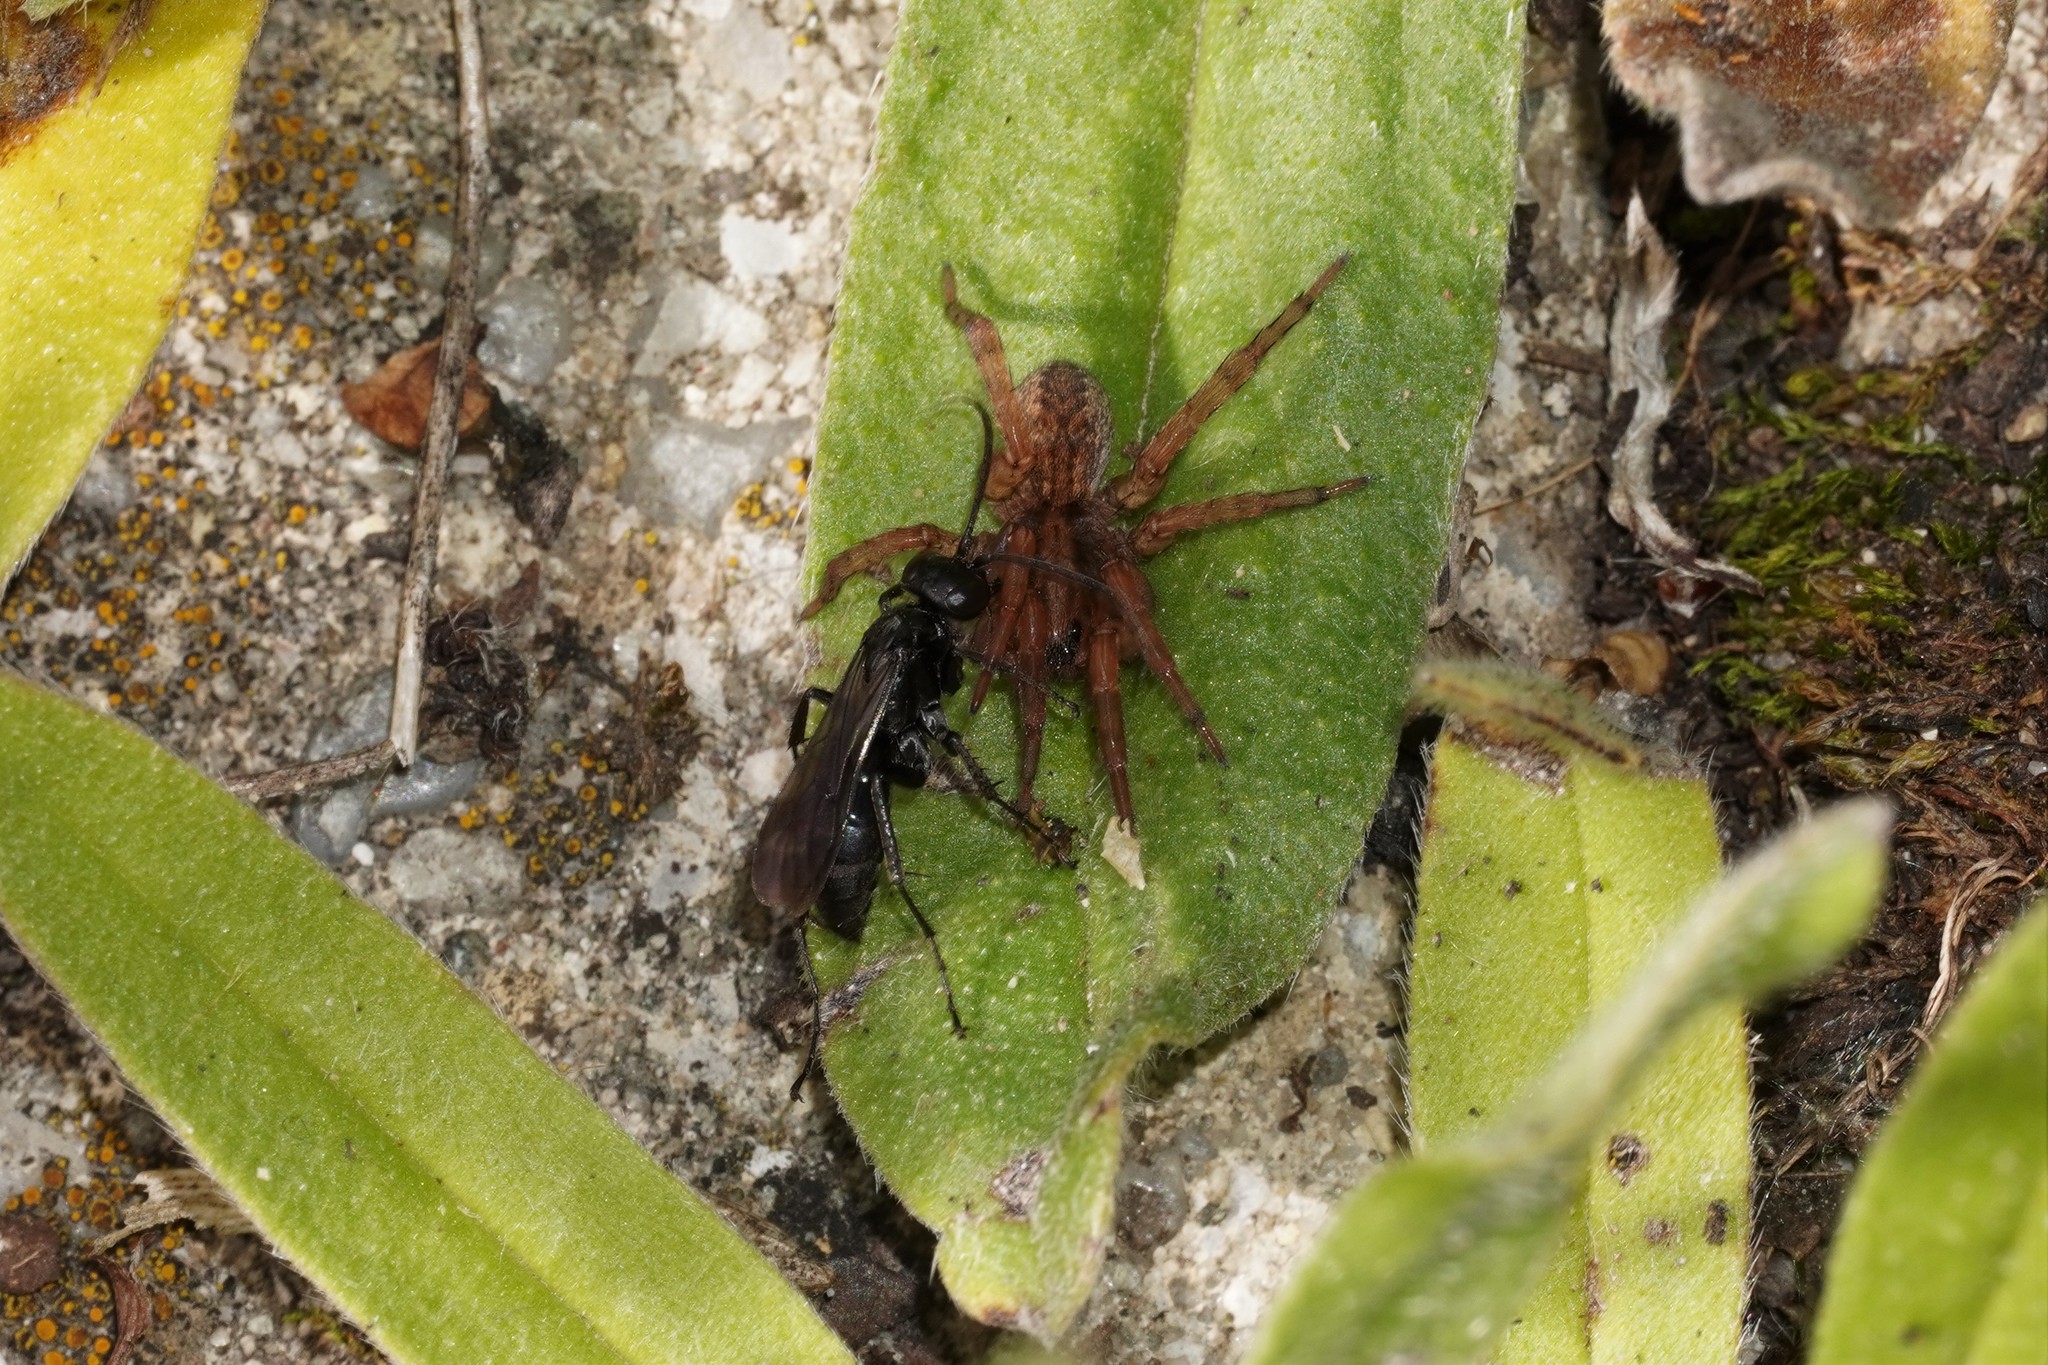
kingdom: Animalia
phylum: Arthropoda
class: Insecta
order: Hymenoptera
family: Pompilidae
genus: Anoplius
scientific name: Anoplius nigerrimus
